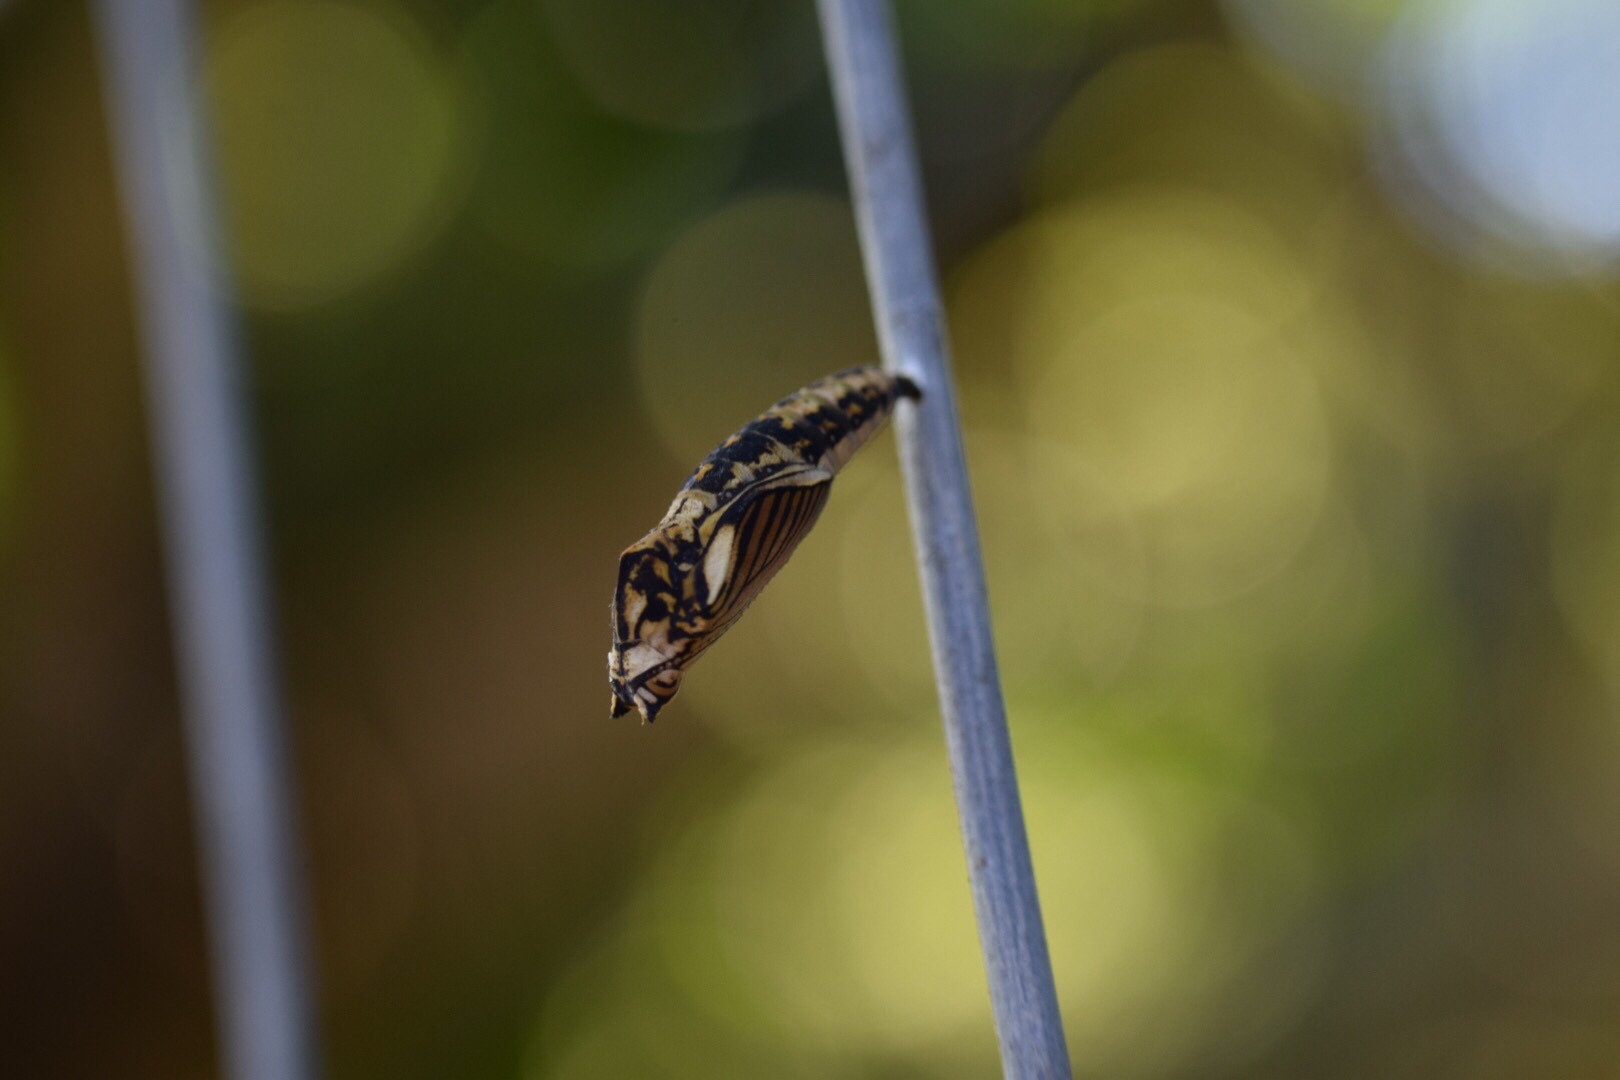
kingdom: Animalia
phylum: Arthropoda
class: Insecta
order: Lepidoptera
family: Nymphalidae
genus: Asterope
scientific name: Asterope boisduvali
